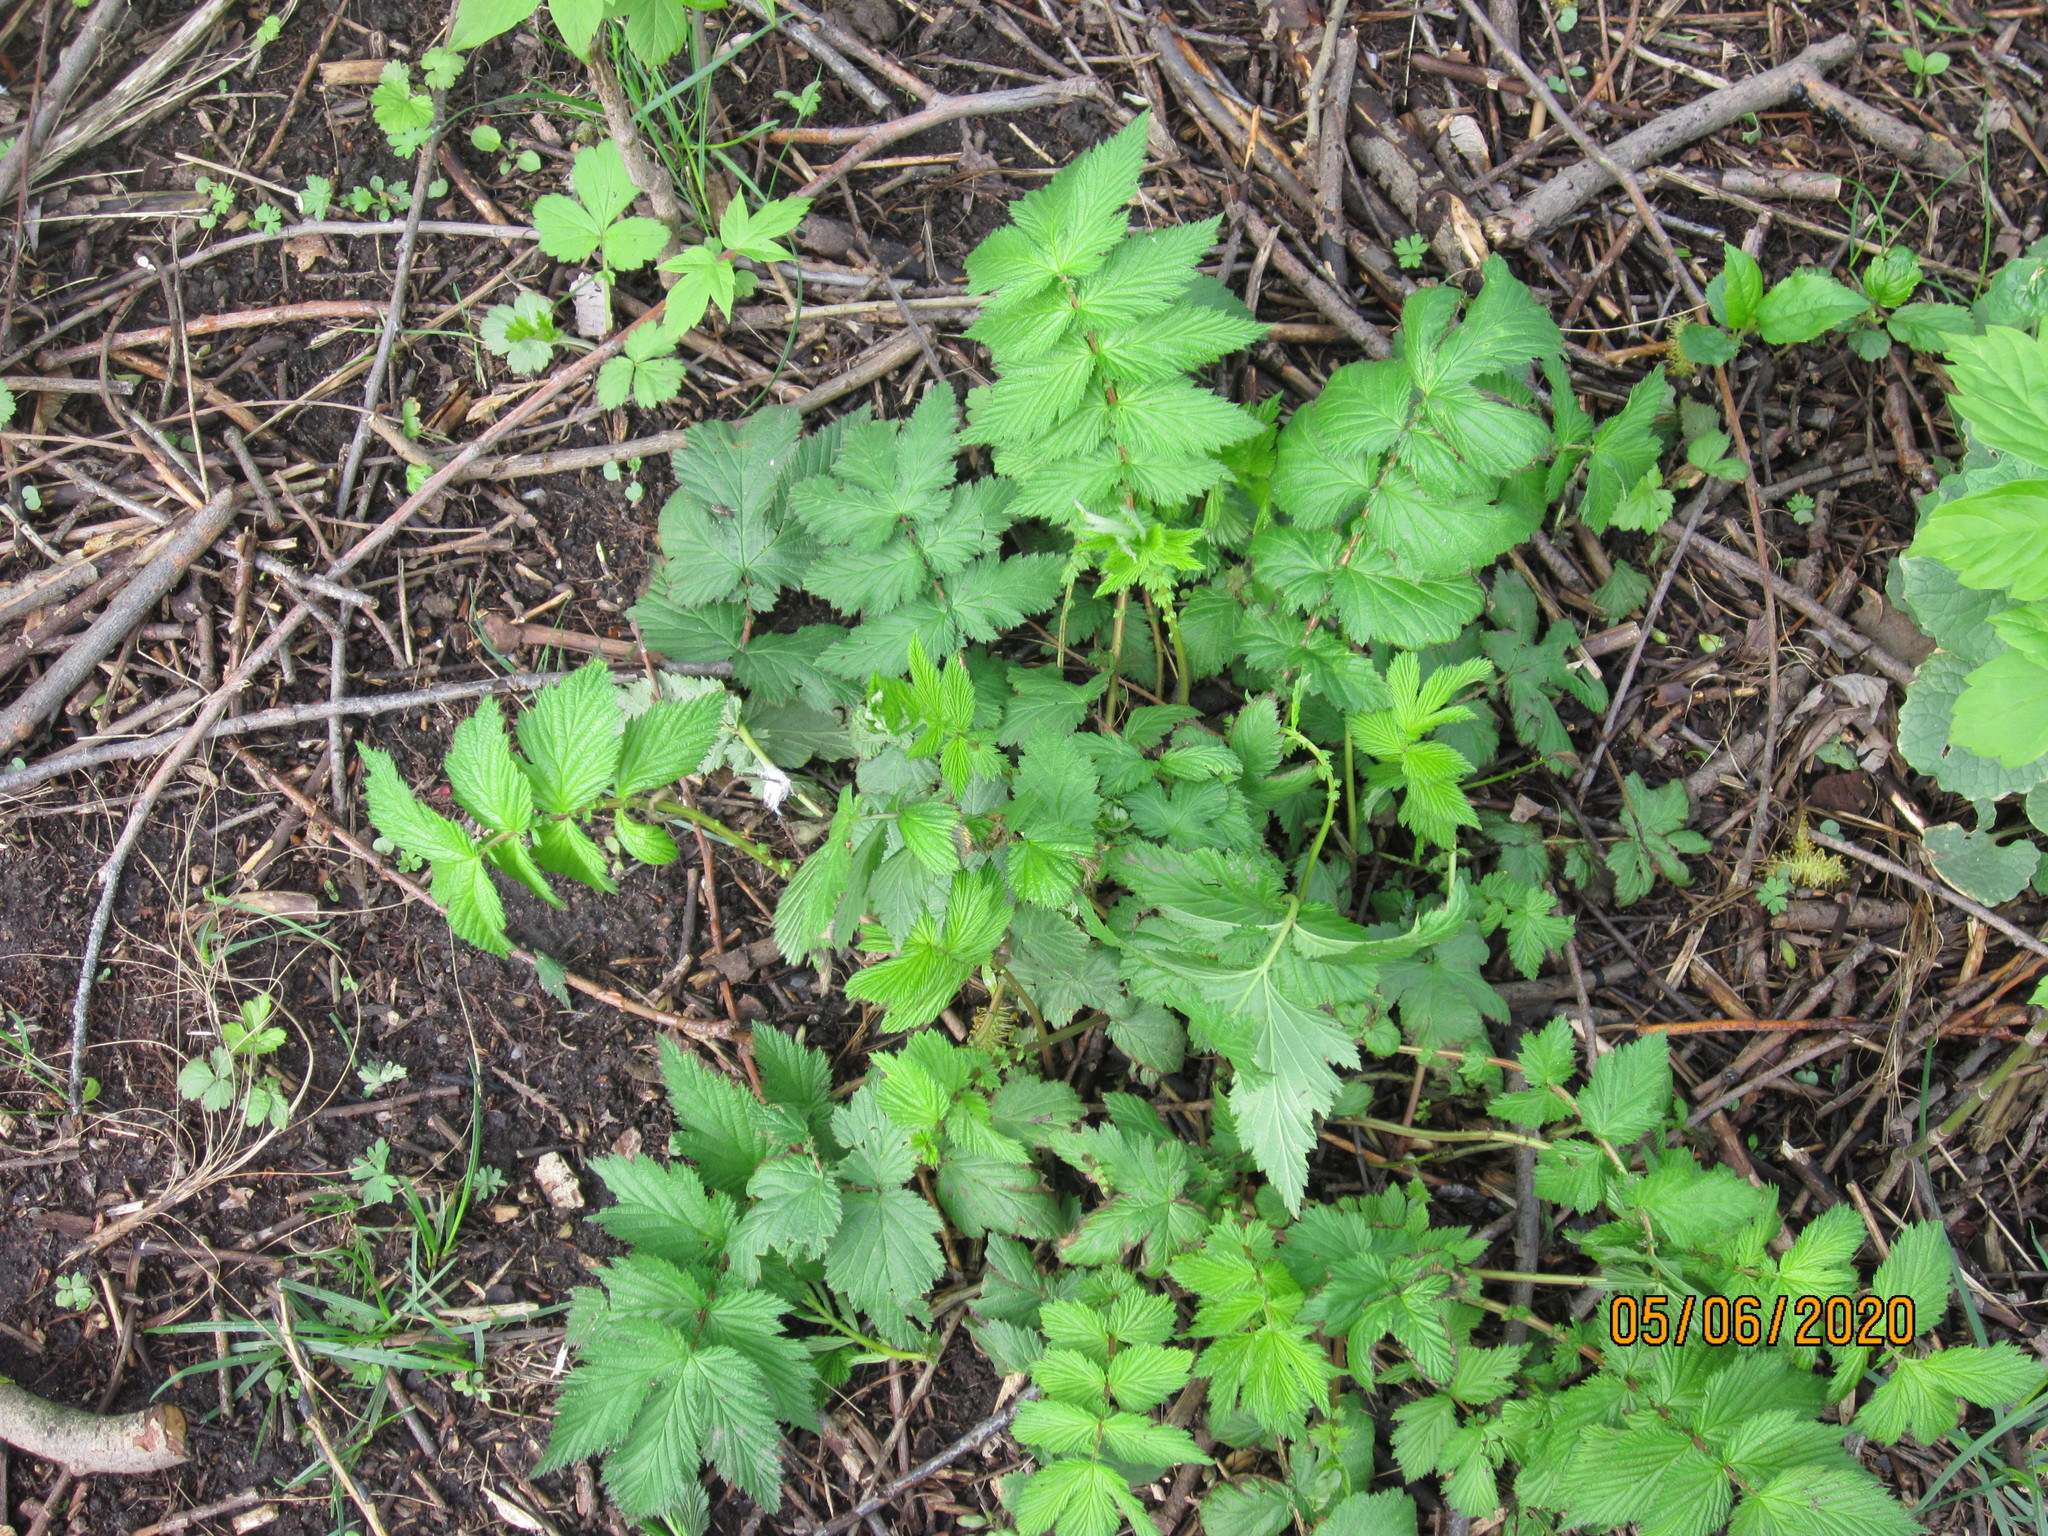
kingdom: Plantae
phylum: Tracheophyta
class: Magnoliopsida
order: Rosales
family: Rosaceae
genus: Filipendula
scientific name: Filipendula ulmaria
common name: Meadowsweet
